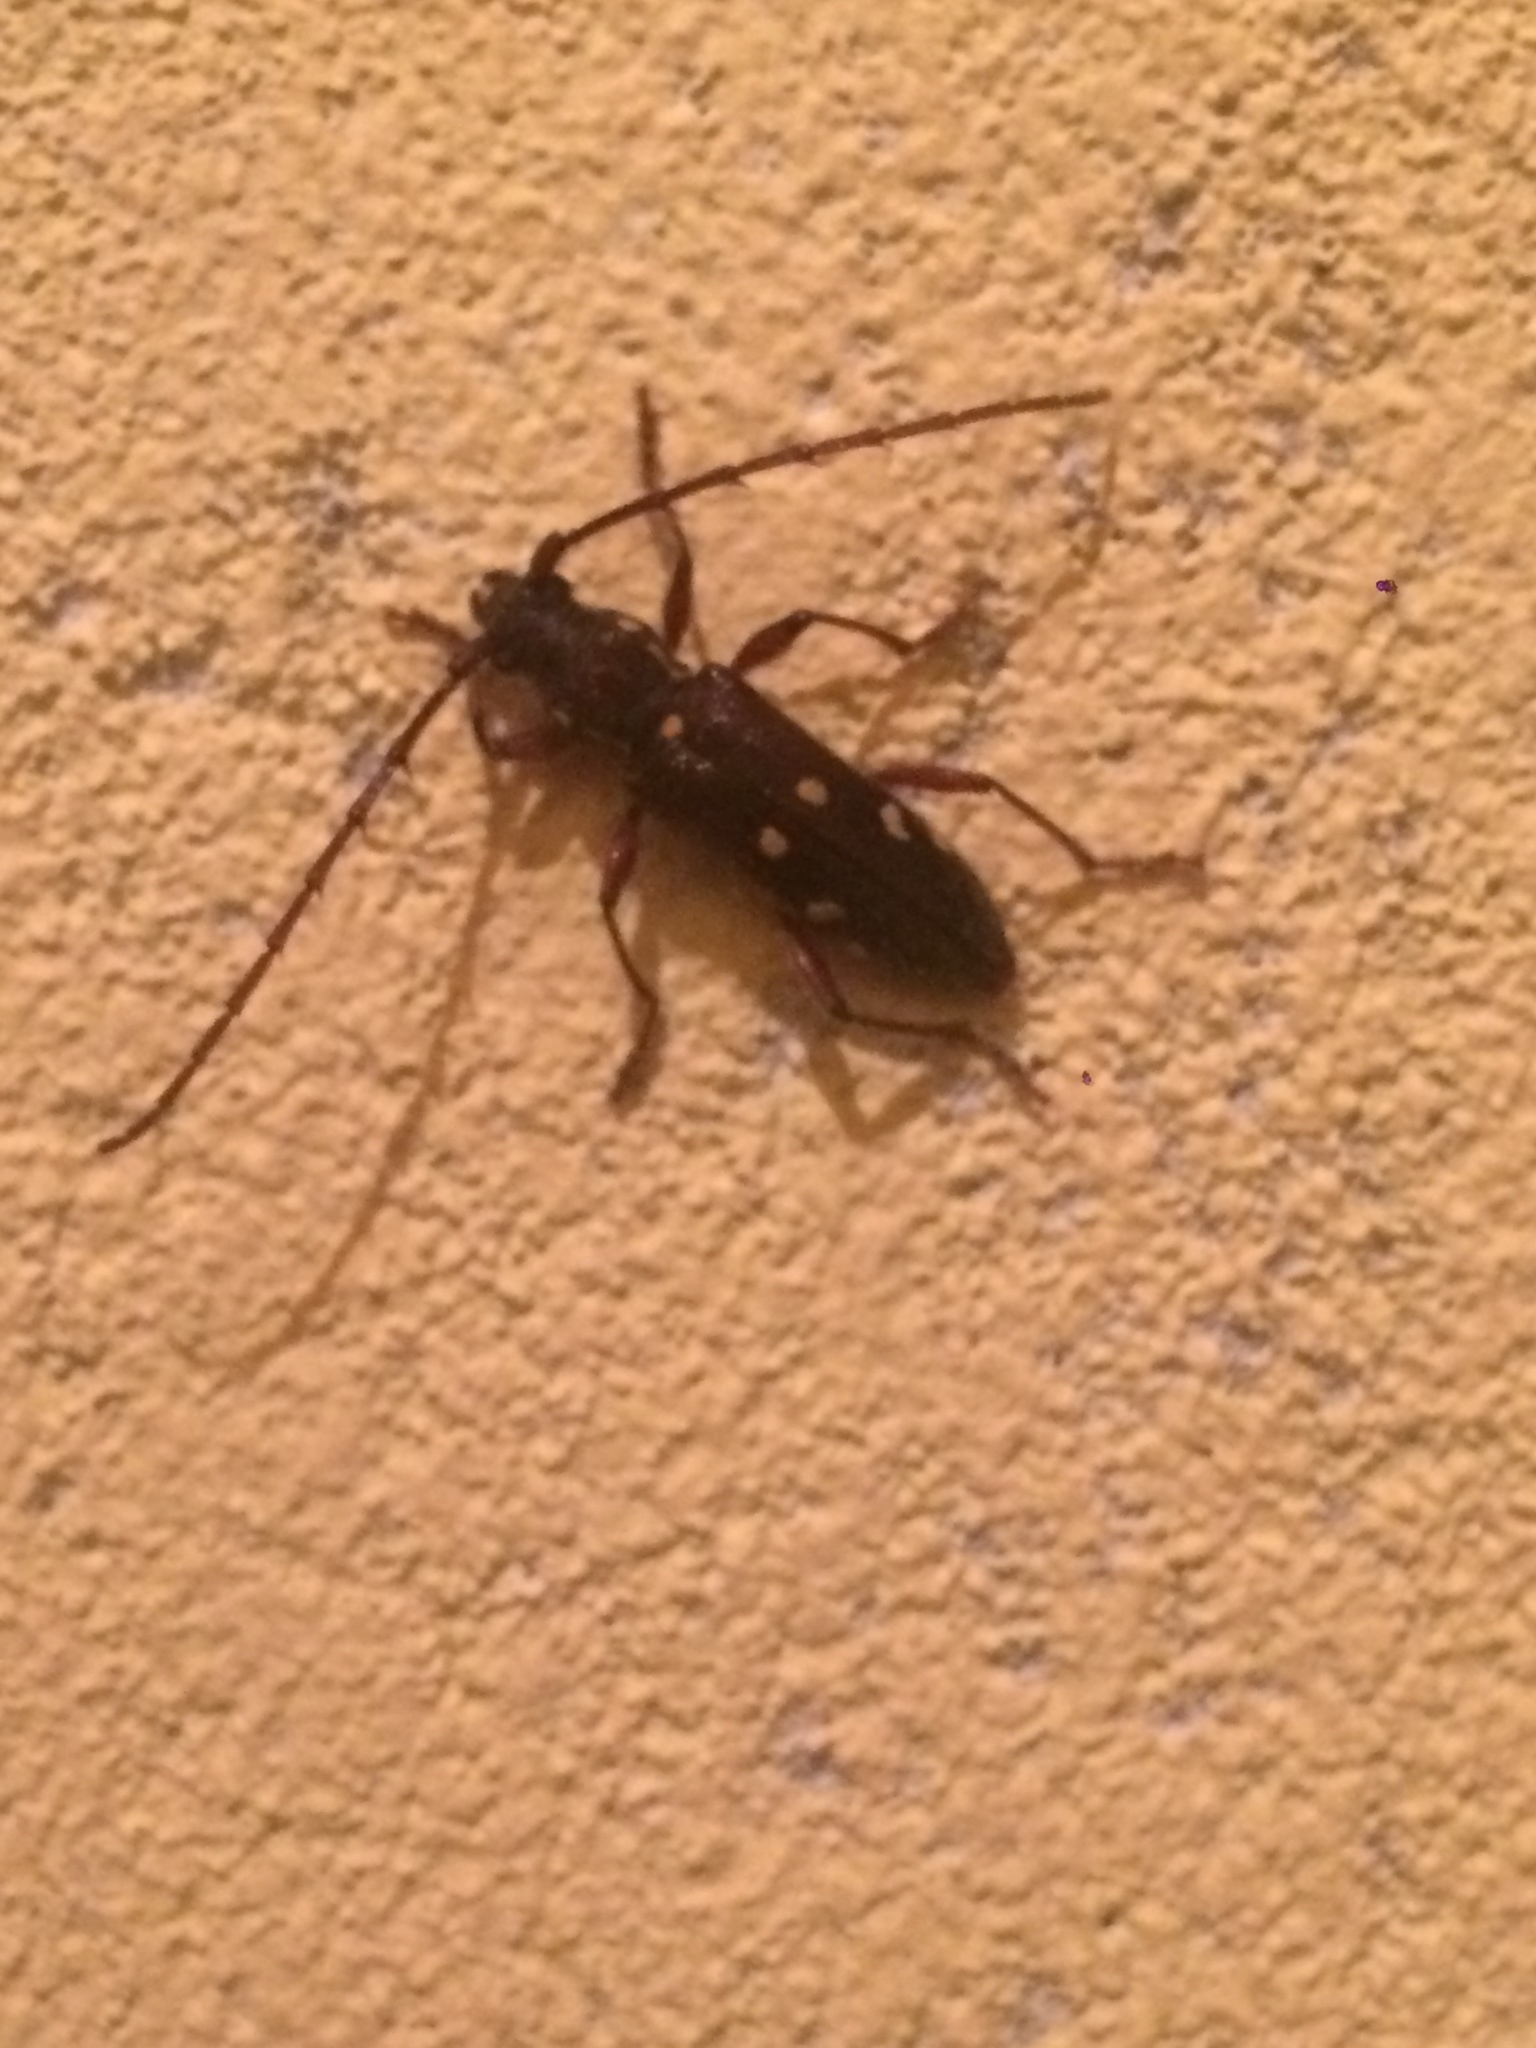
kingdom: Animalia
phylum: Arthropoda
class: Insecta
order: Coleoptera
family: Cerambycidae
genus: Ambonus
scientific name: Ambonus electus
